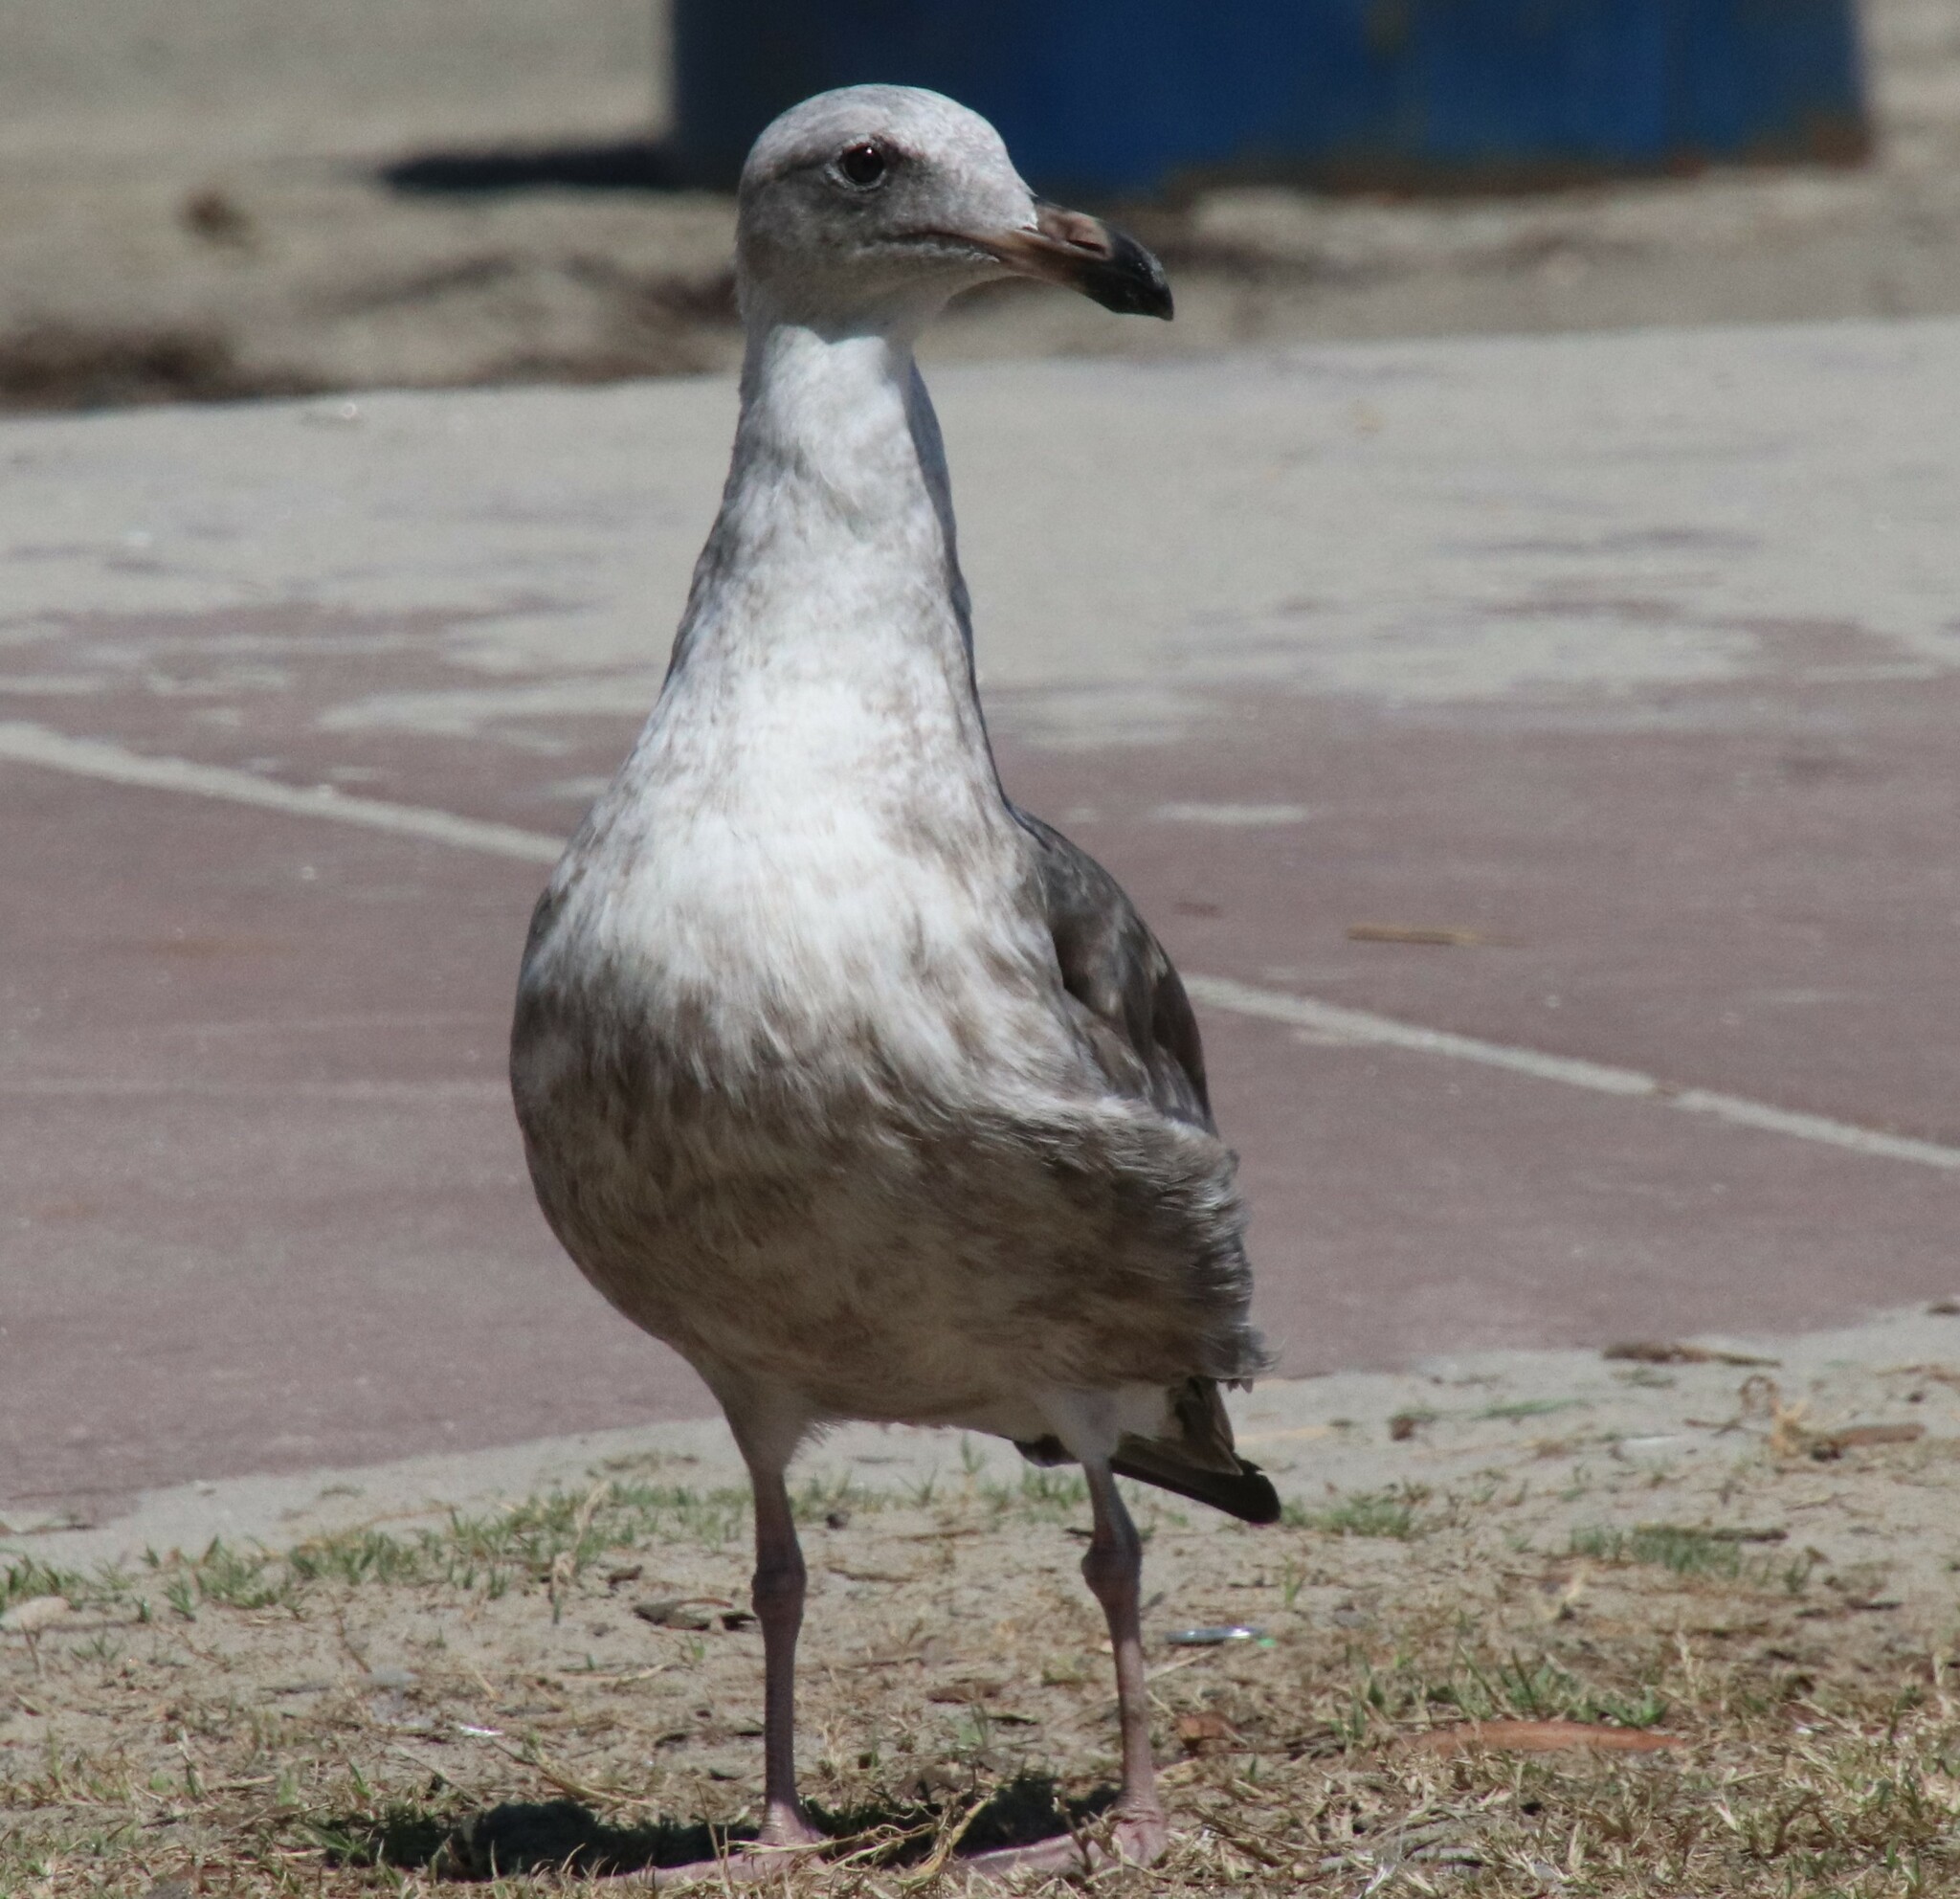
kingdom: Animalia
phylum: Chordata
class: Aves
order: Charadriiformes
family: Laridae
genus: Larus
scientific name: Larus occidentalis
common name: Western gull
